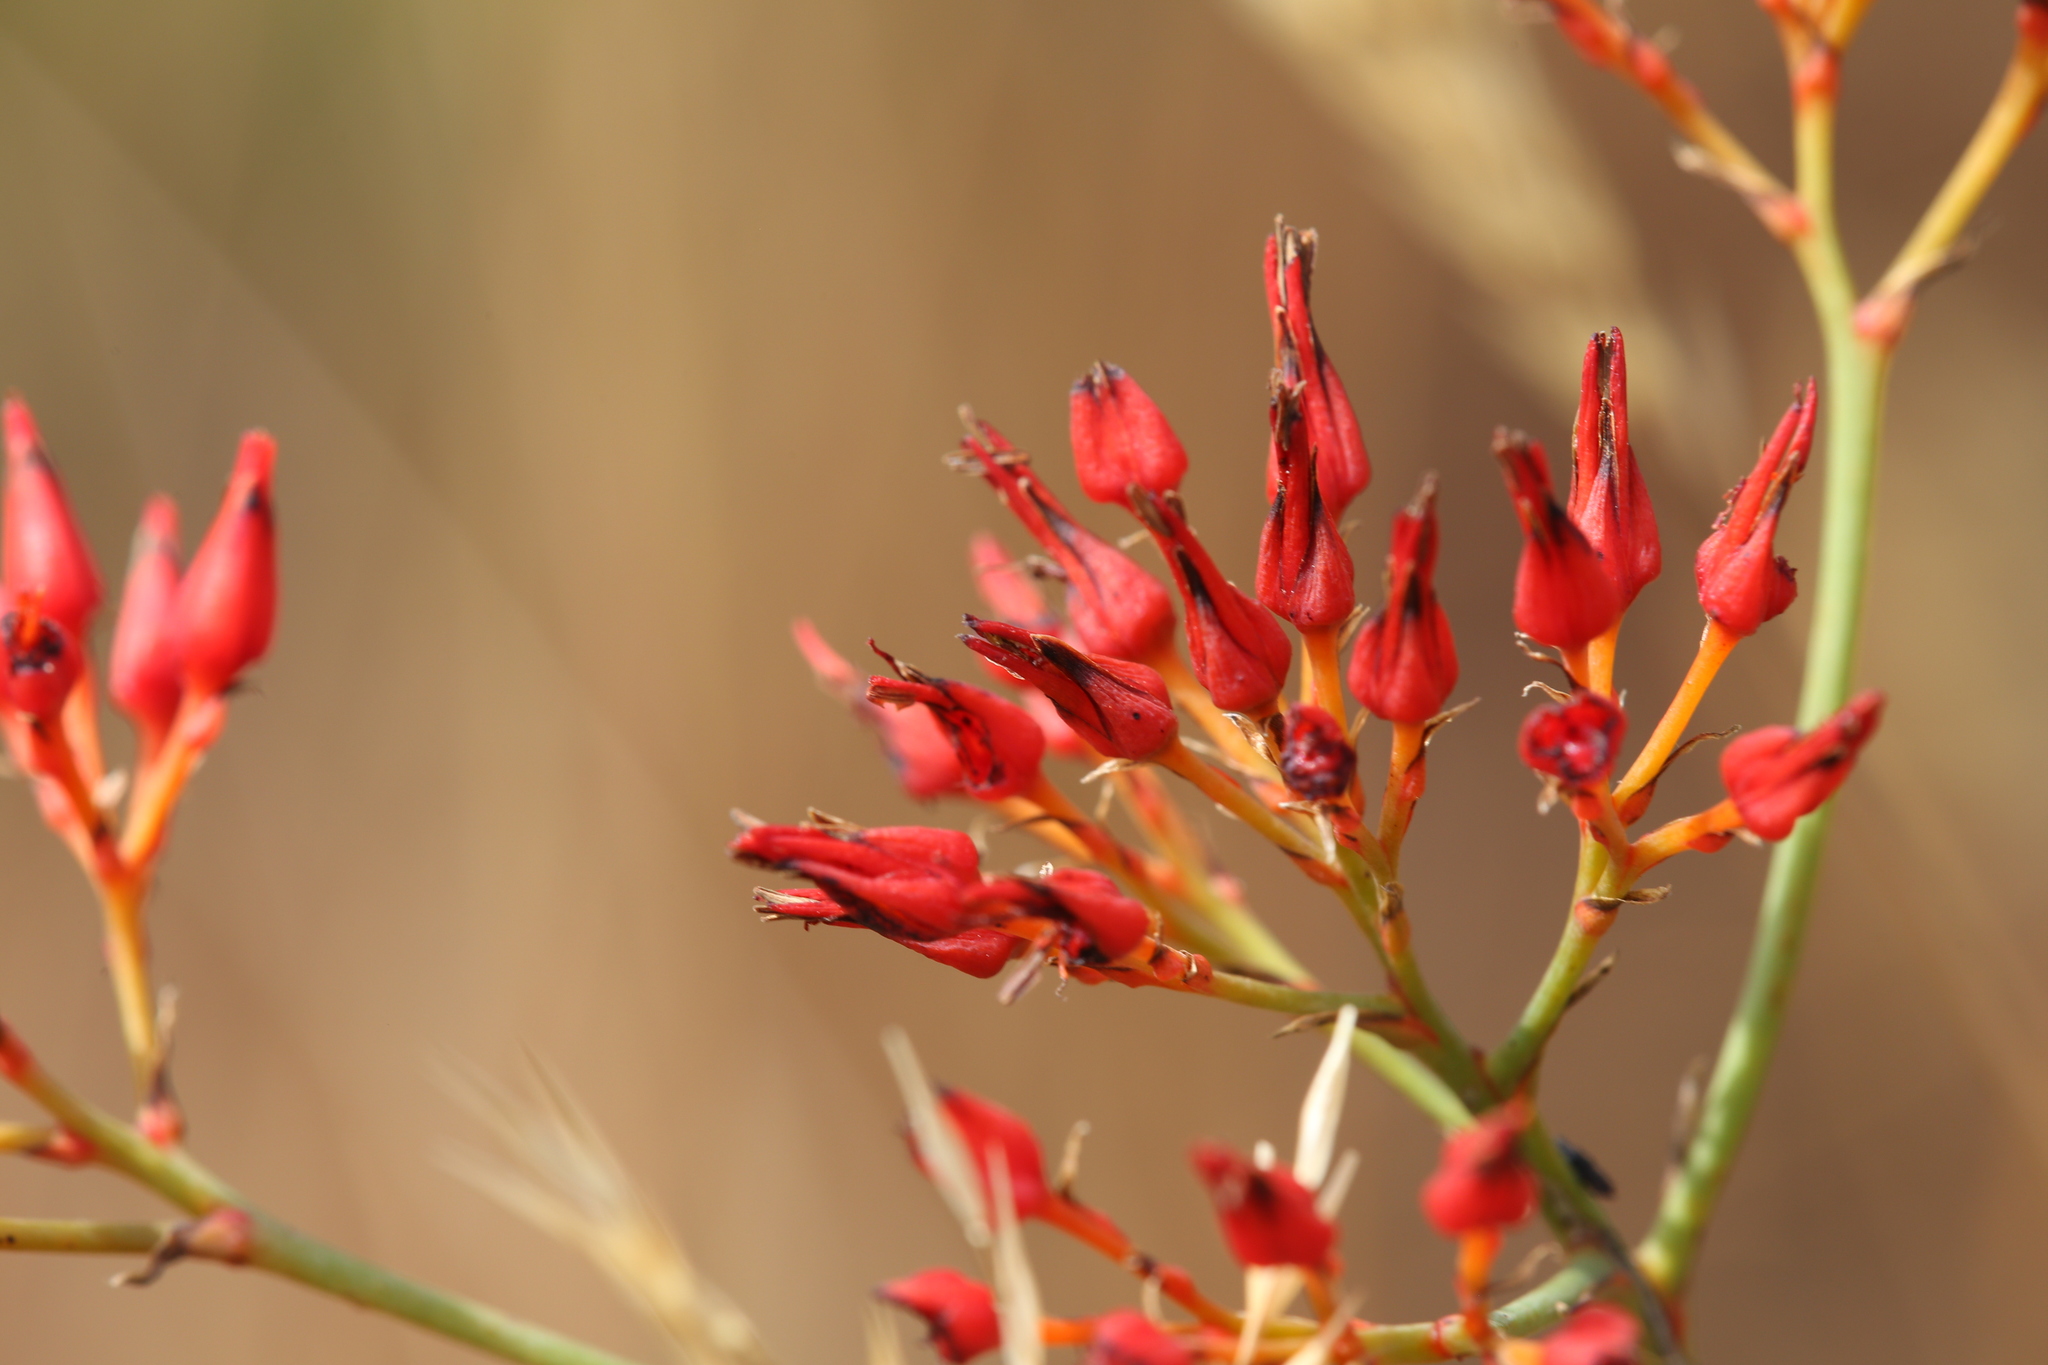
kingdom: Plantae
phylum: Tracheophyta
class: Liliopsida
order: Commelinales
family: Haemodoraceae
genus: Haemodorum
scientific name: Haemodorum coccineum
